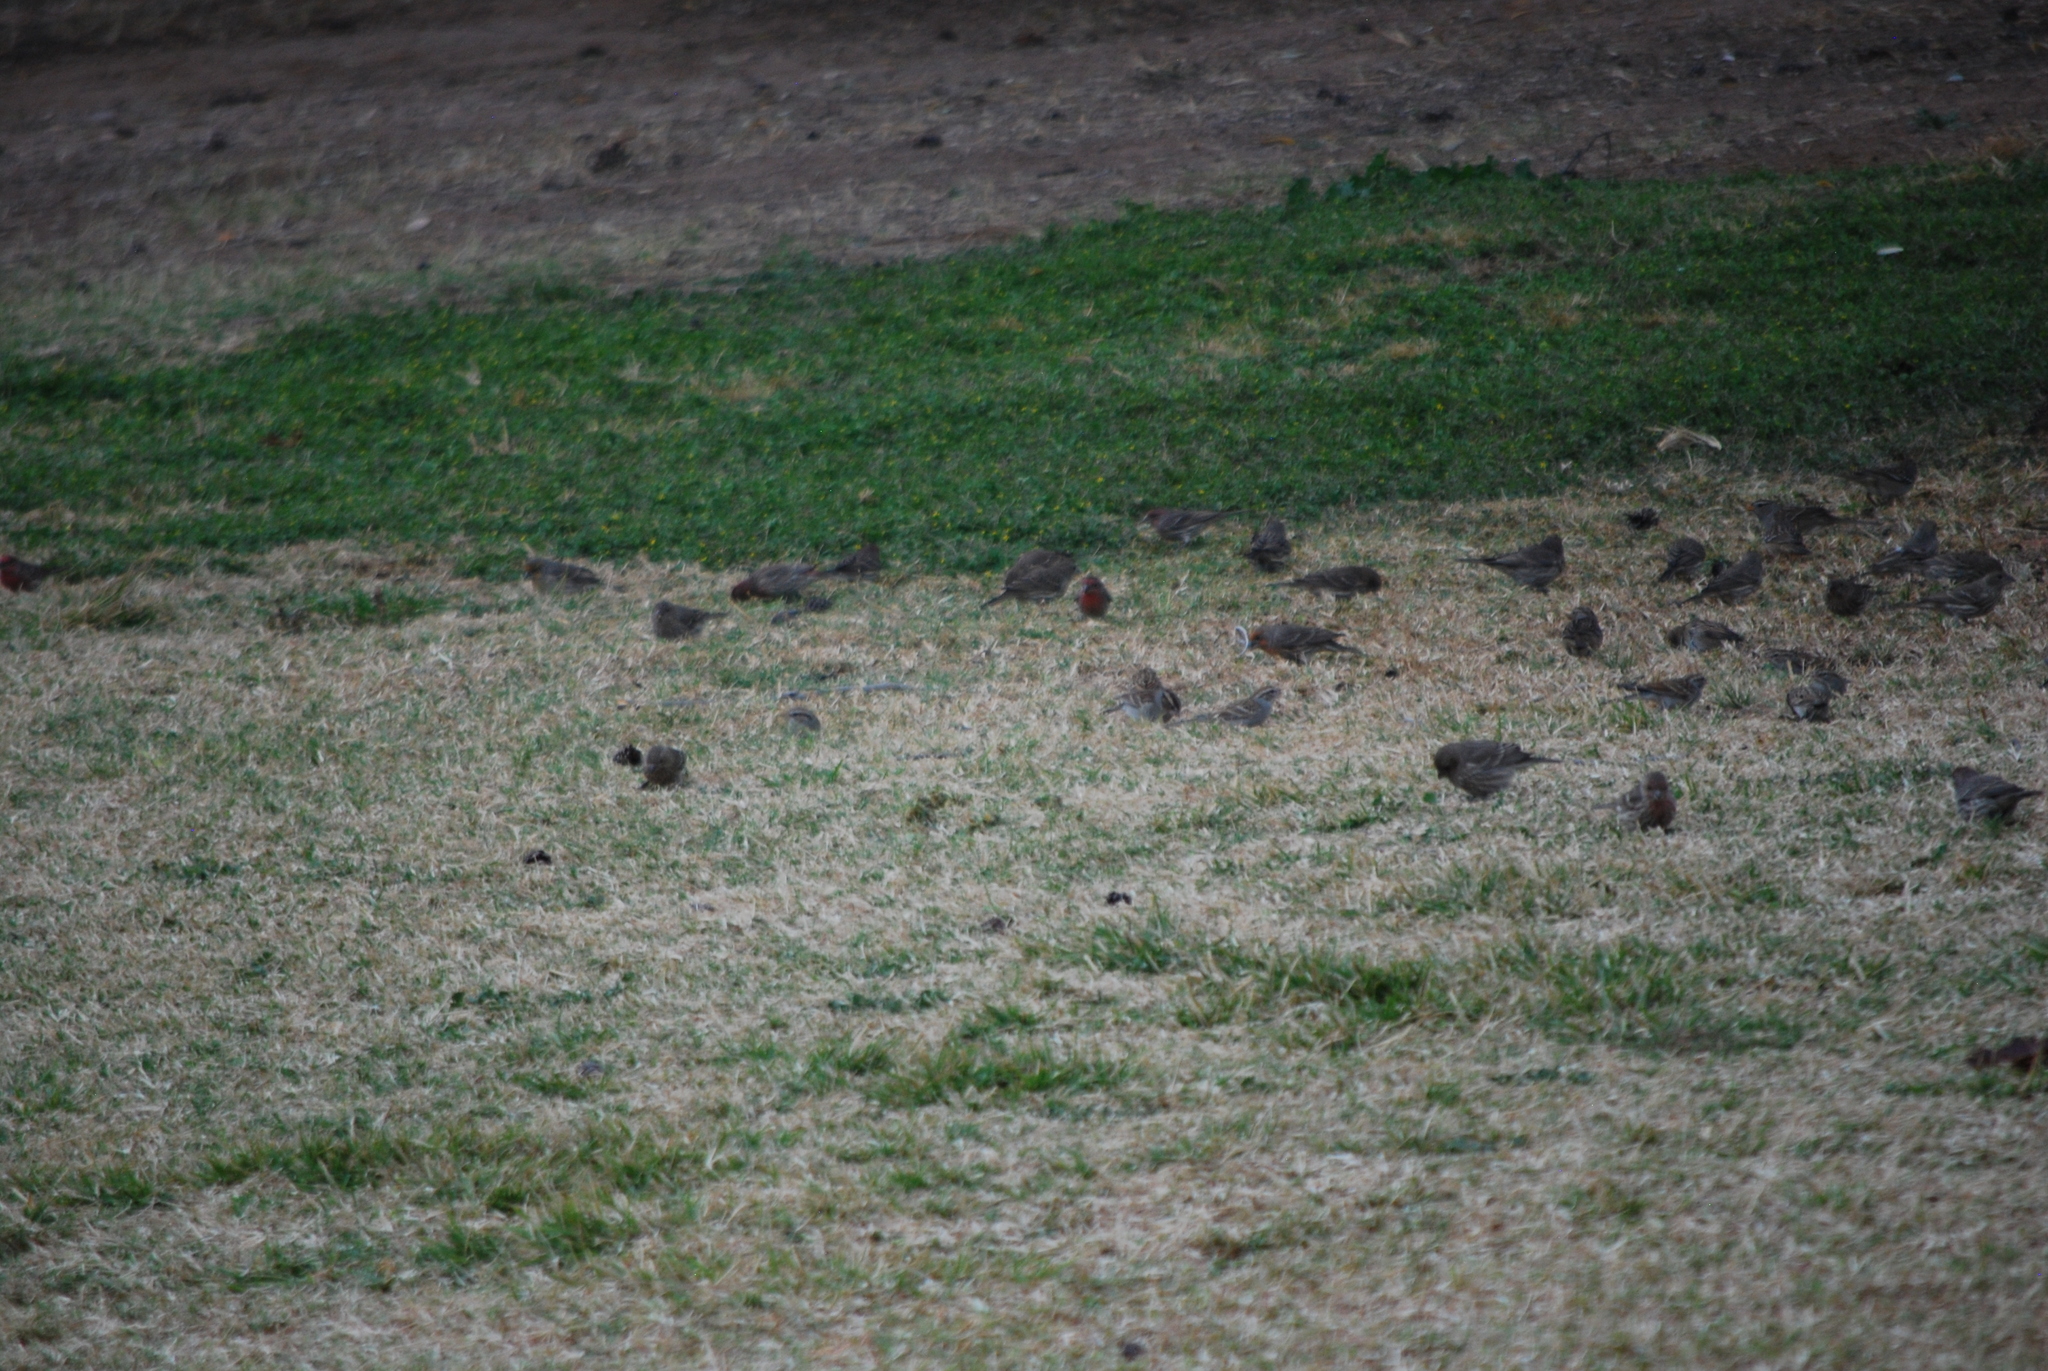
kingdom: Animalia
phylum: Chordata
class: Aves
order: Passeriformes
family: Fringillidae
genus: Haemorhous
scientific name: Haemorhous mexicanus
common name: House finch
